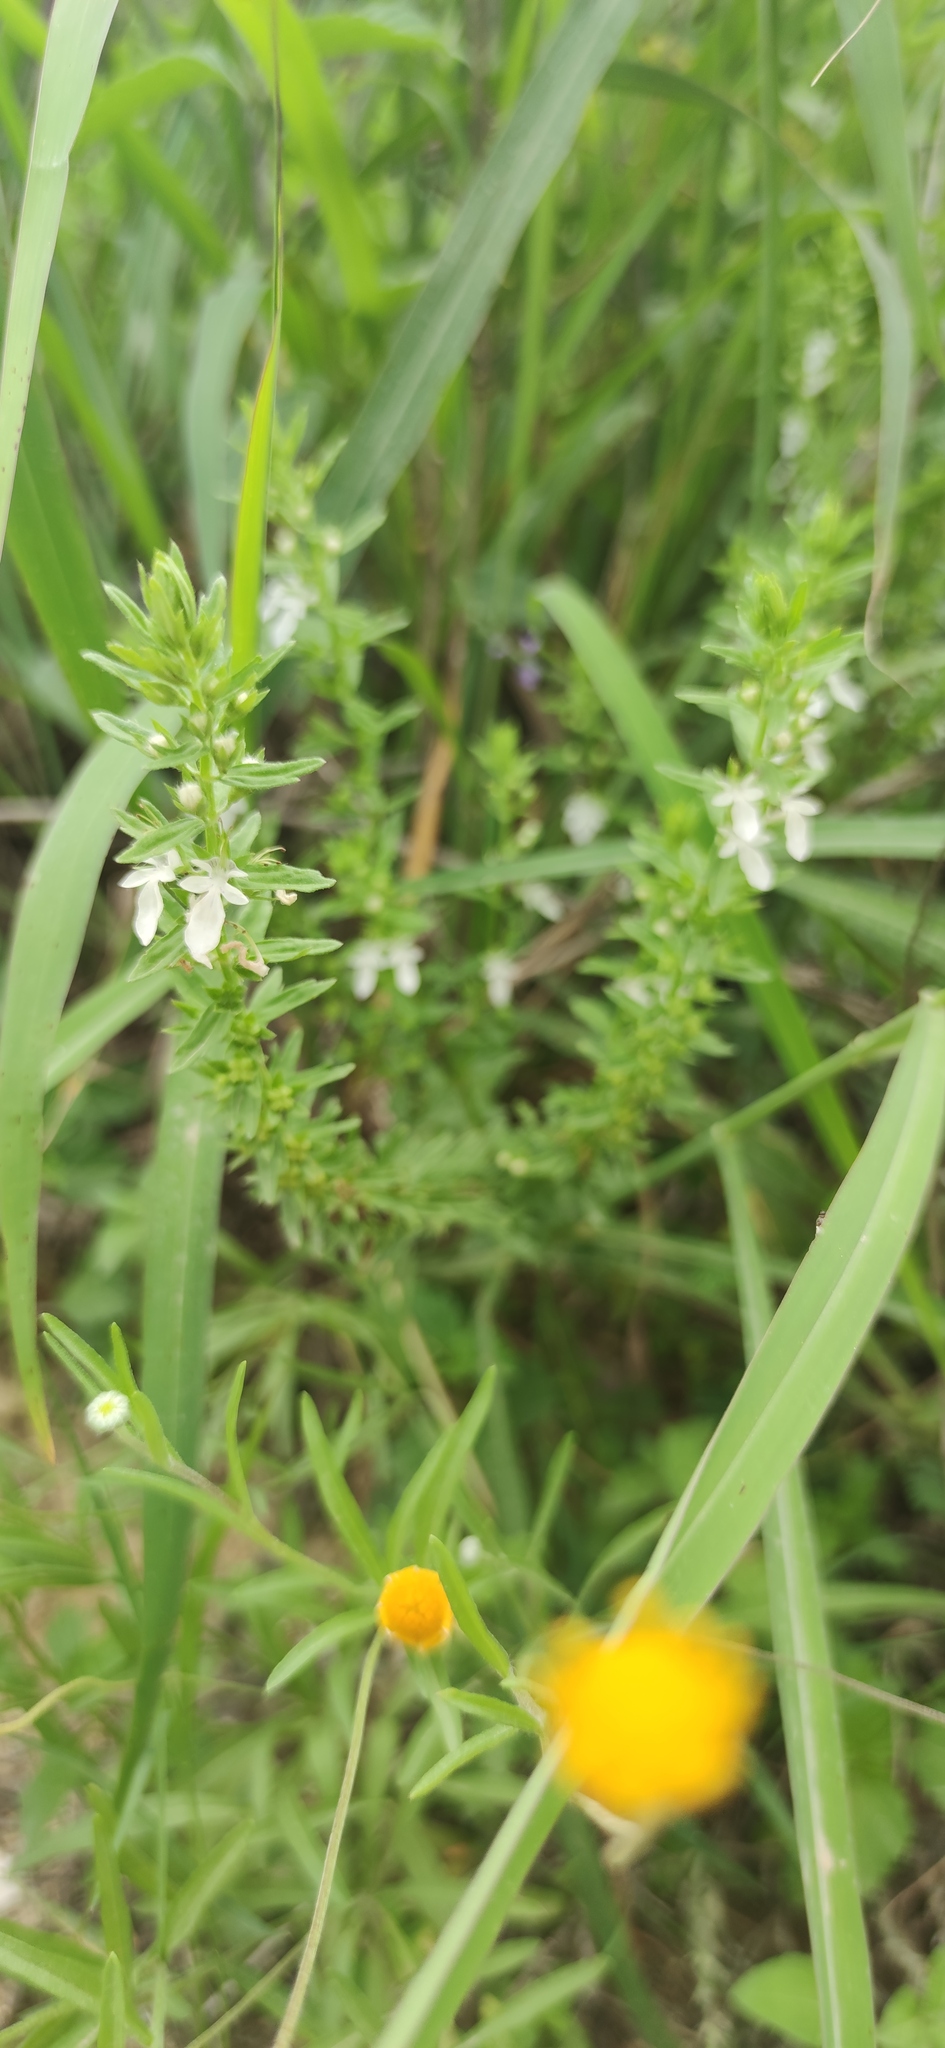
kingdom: Plantae
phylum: Tracheophyta
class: Magnoliopsida
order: Lamiales
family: Lamiaceae
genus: Teucrium
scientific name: Teucrium cubense
